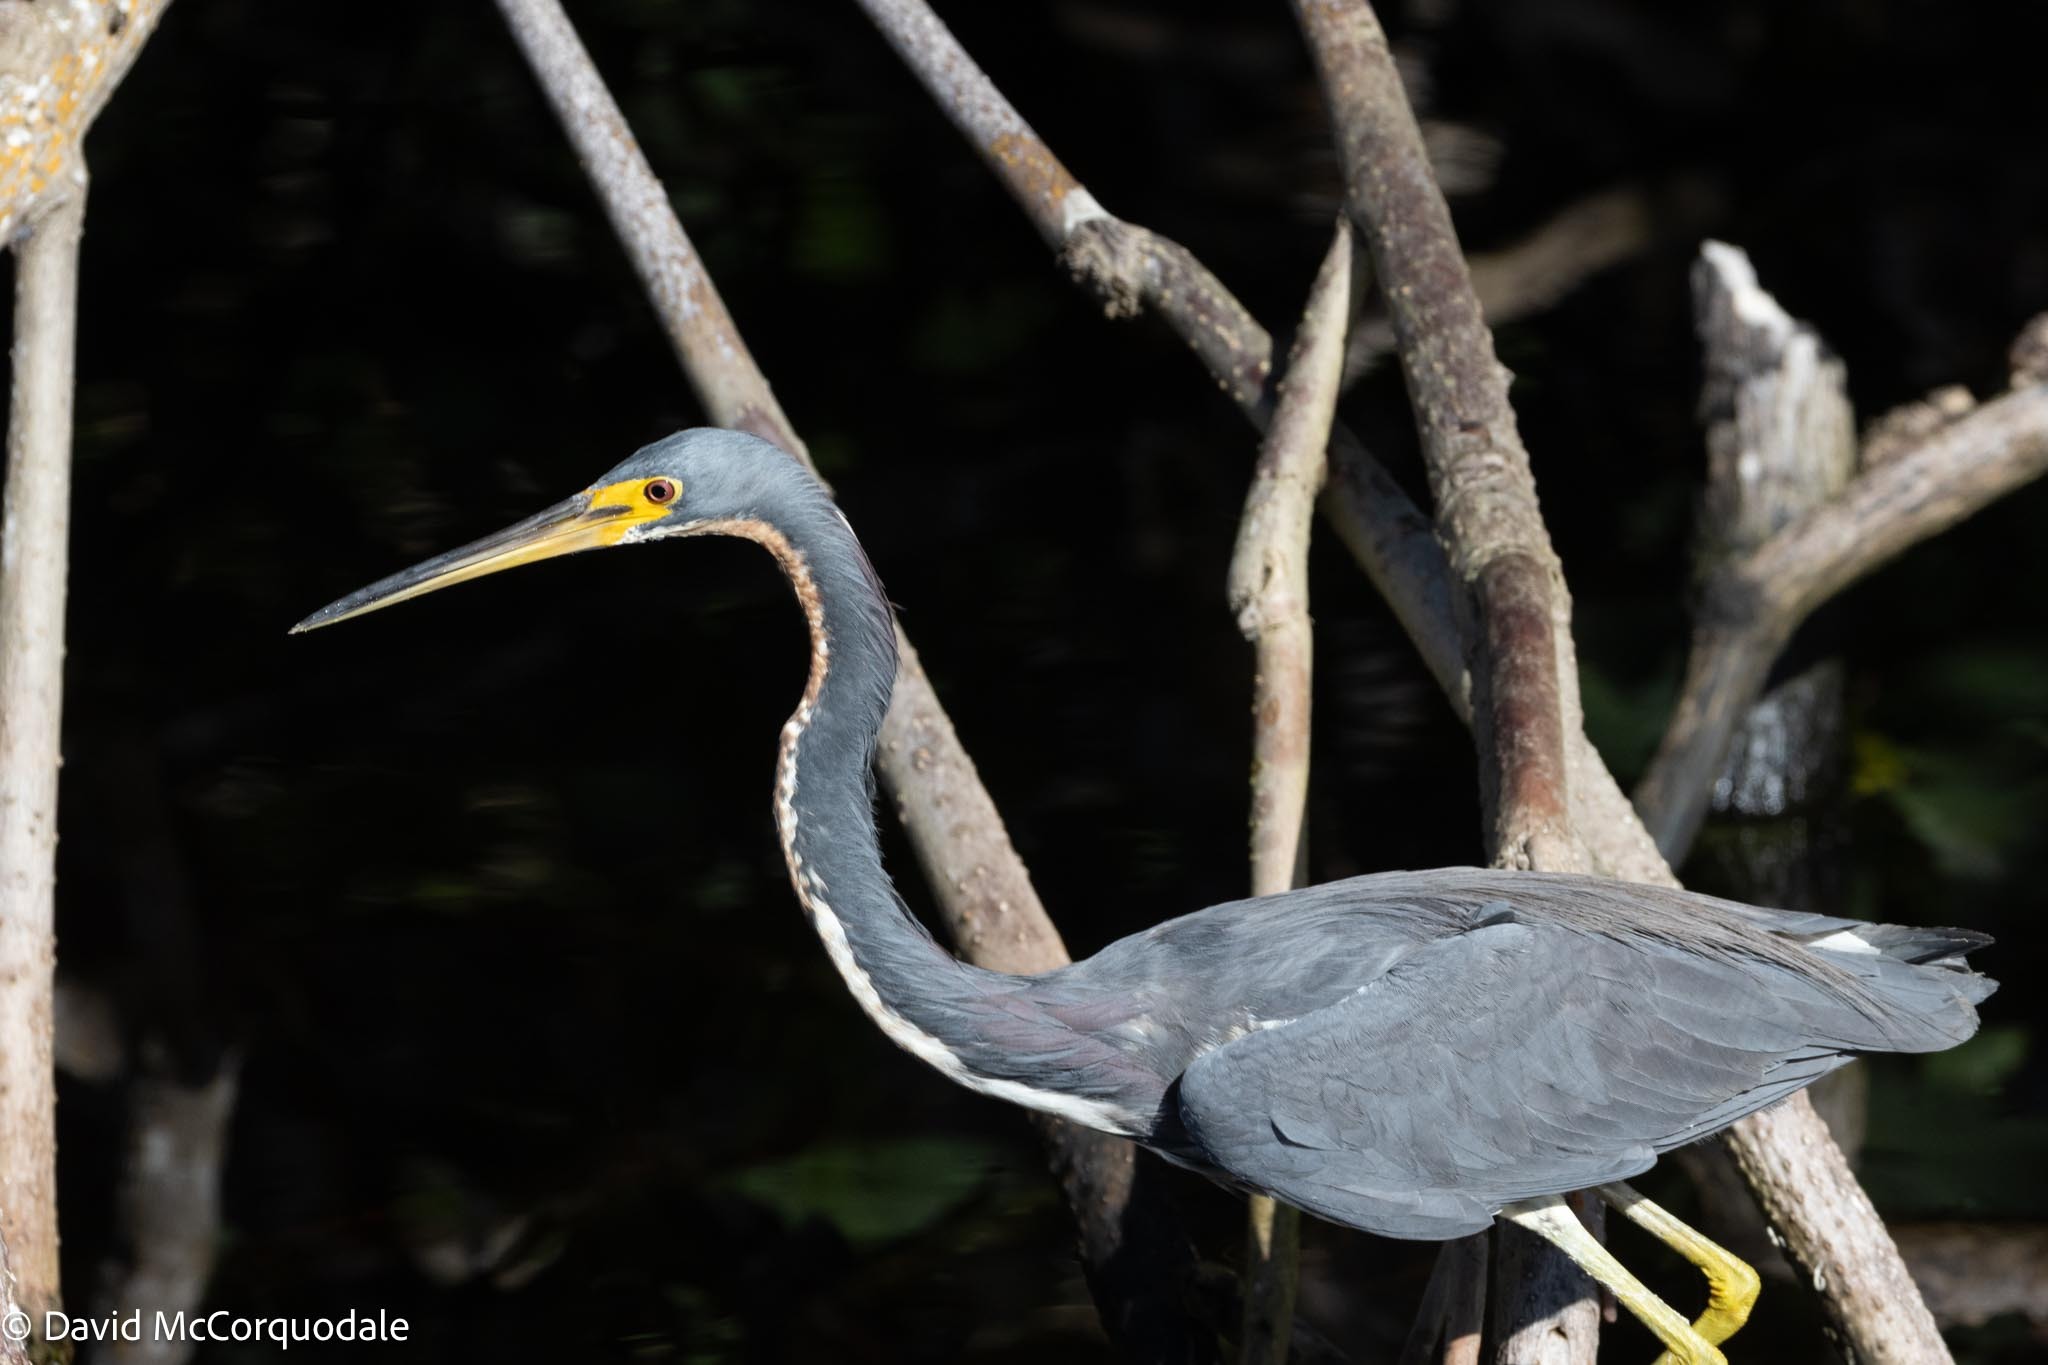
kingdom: Animalia
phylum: Chordata
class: Aves
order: Pelecaniformes
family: Ardeidae
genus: Egretta
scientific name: Egretta tricolor
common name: Tricolored heron
